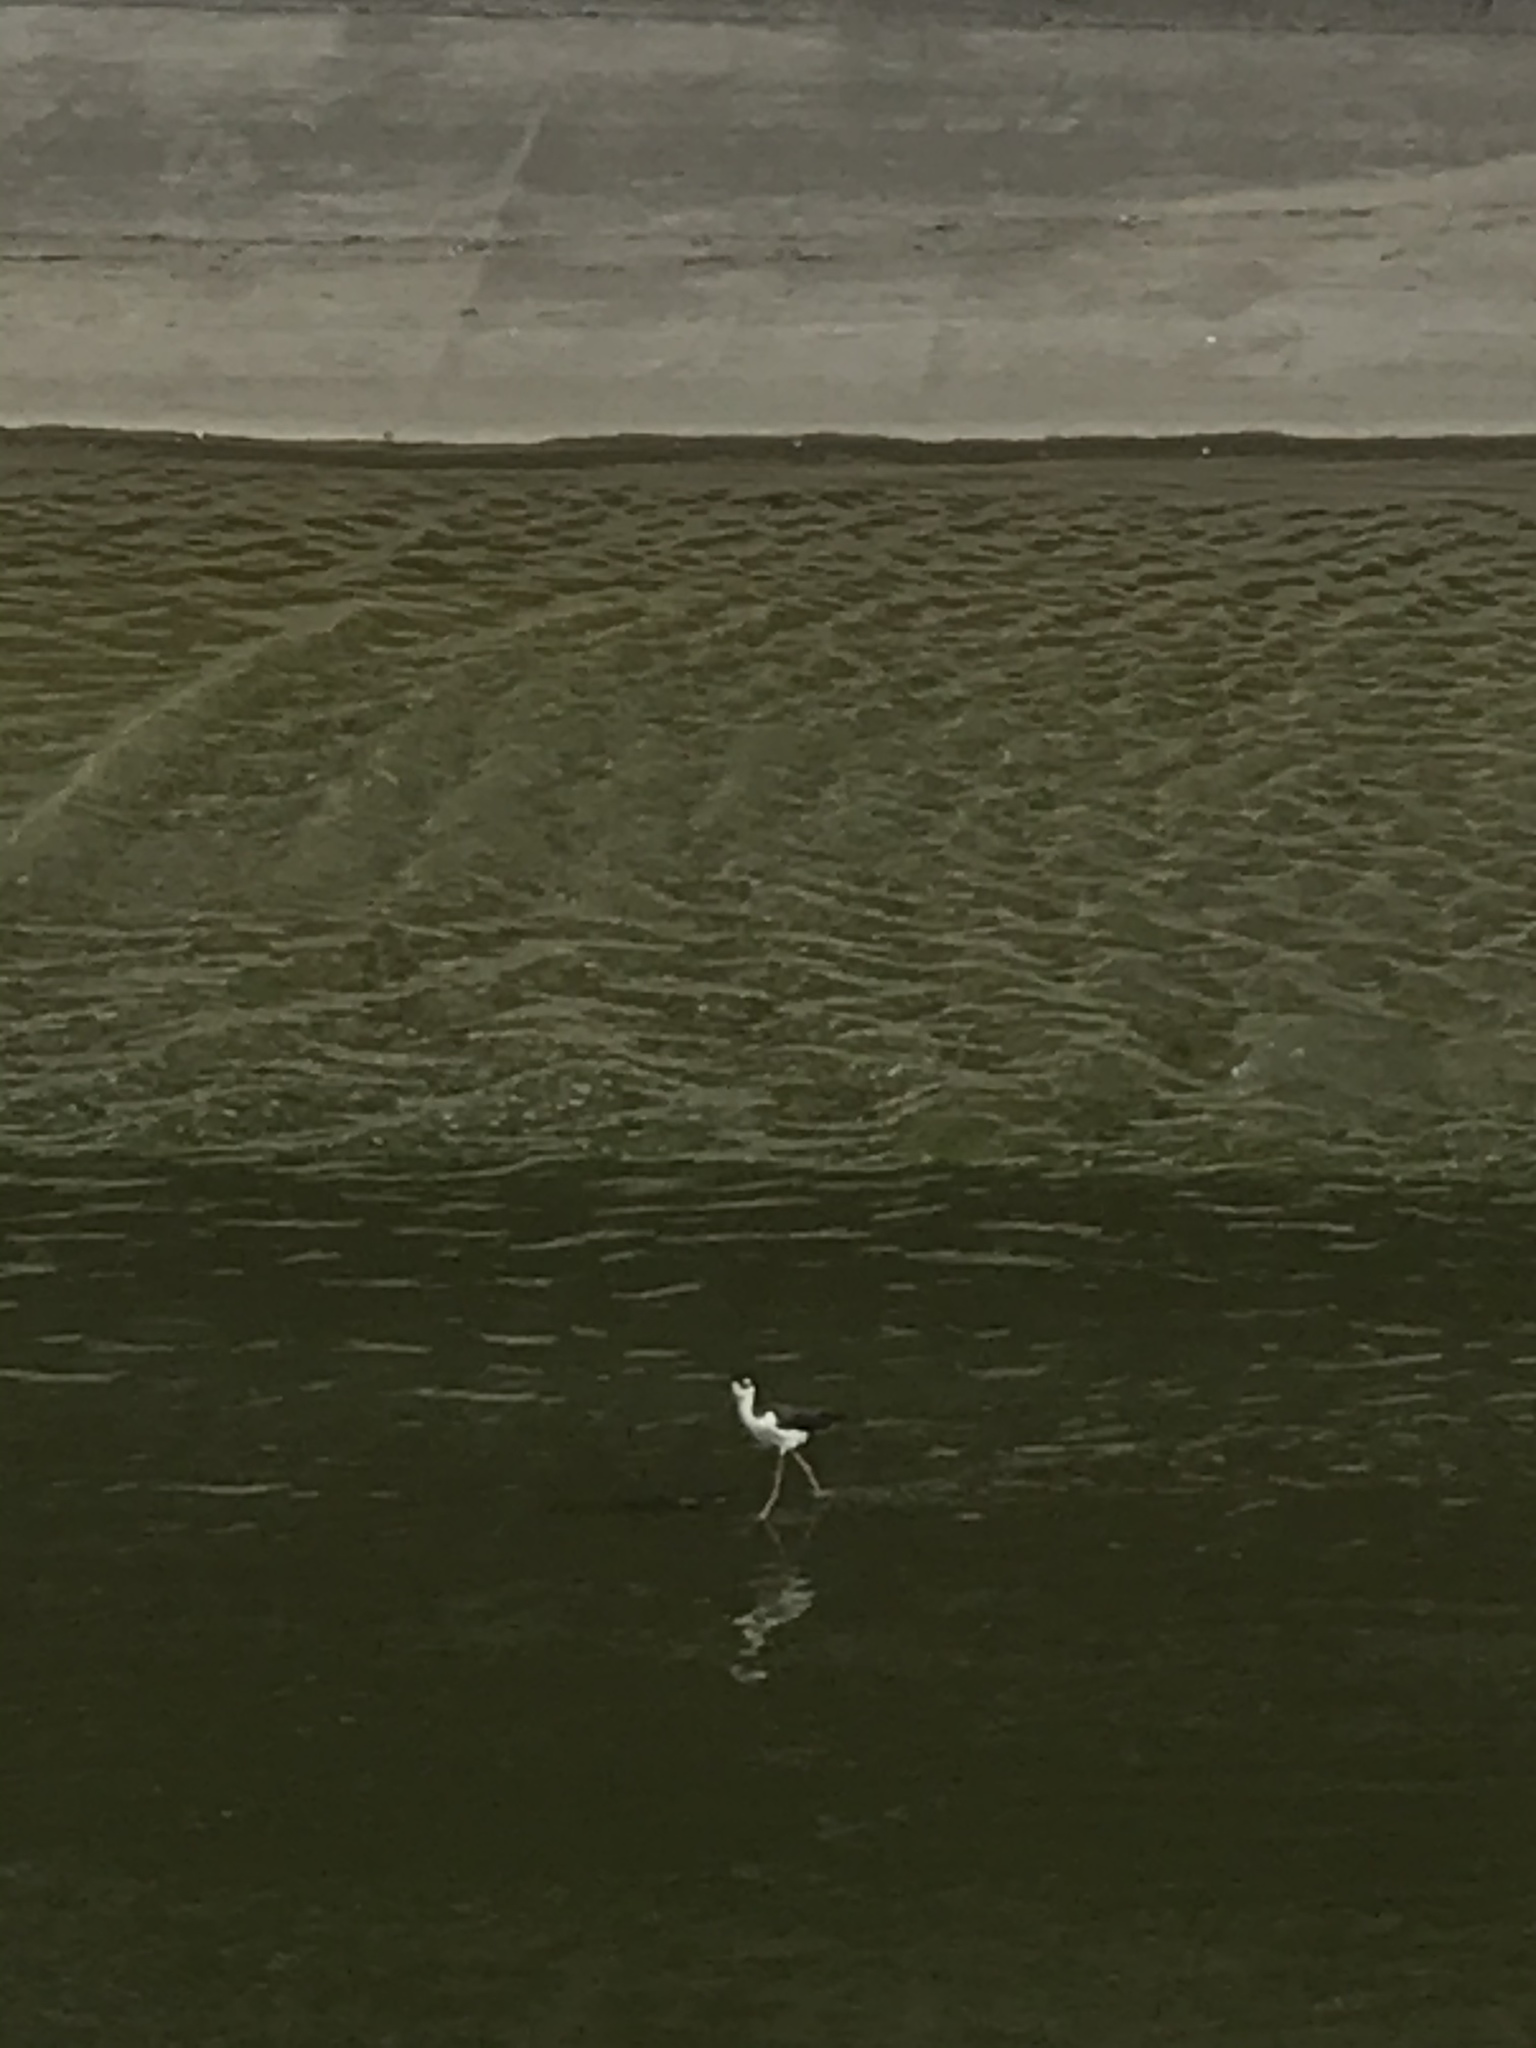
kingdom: Animalia
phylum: Chordata
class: Aves
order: Charadriiformes
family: Recurvirostridae
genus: Himantopus
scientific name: Himantopus mexicanus
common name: Black-necked stilt
